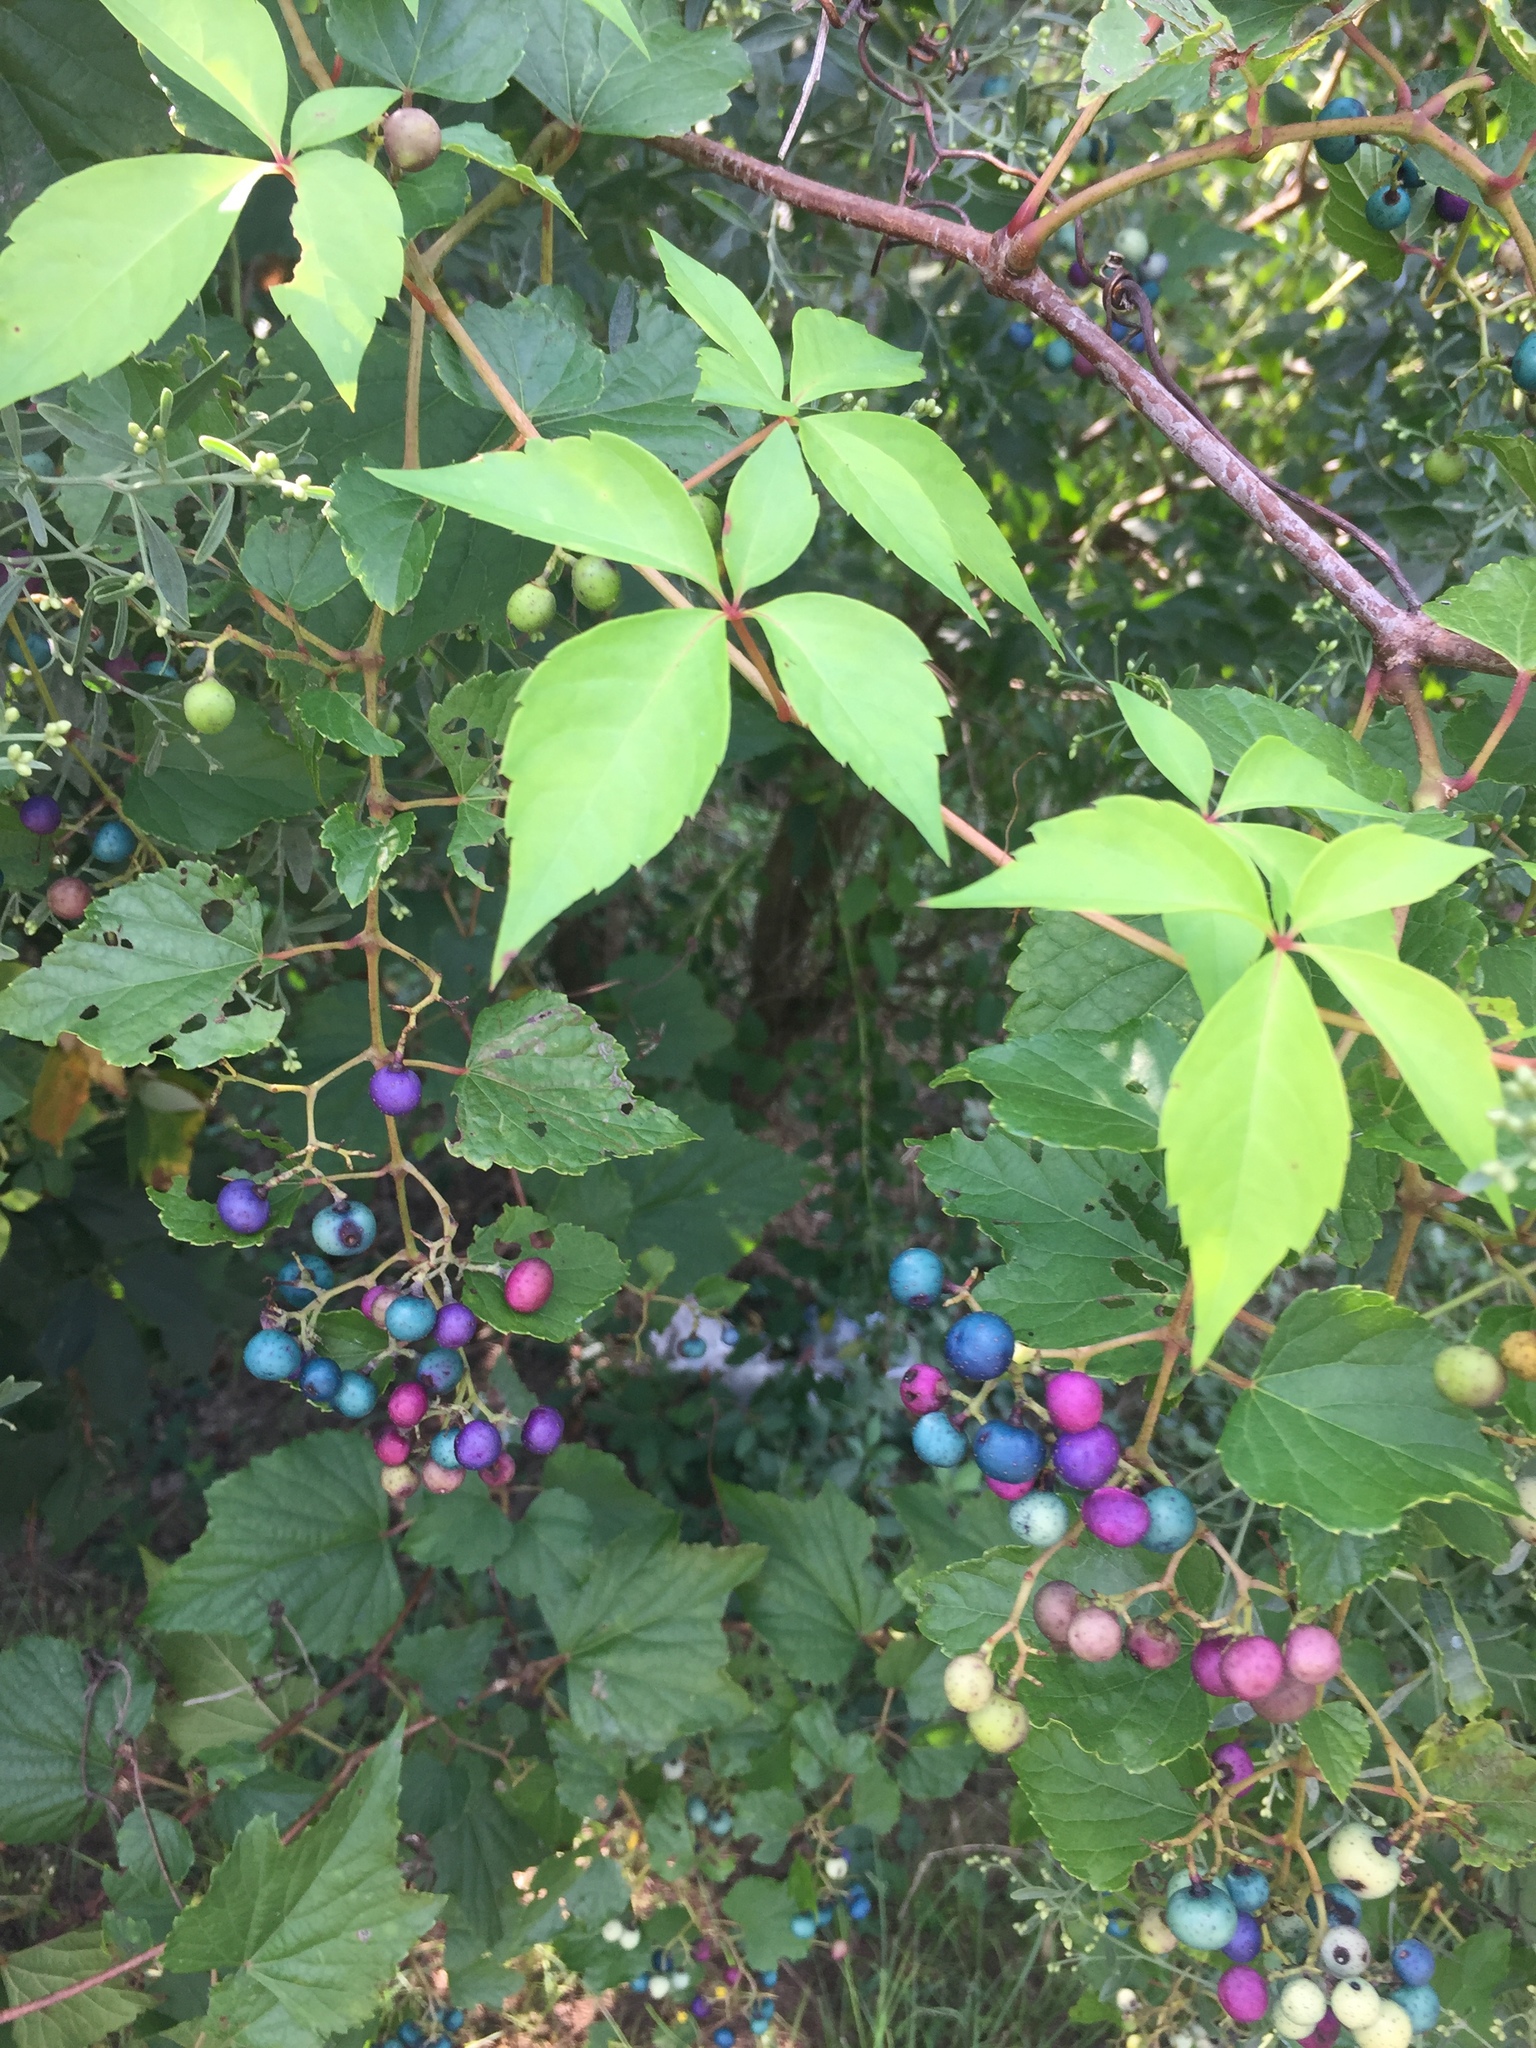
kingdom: Plantae
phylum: Tracheophyta
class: Magnoliopsida
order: Vitales
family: Vitaceae
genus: Ampelopsis
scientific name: Ampelopsis glandulosa
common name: Amur peppervine
